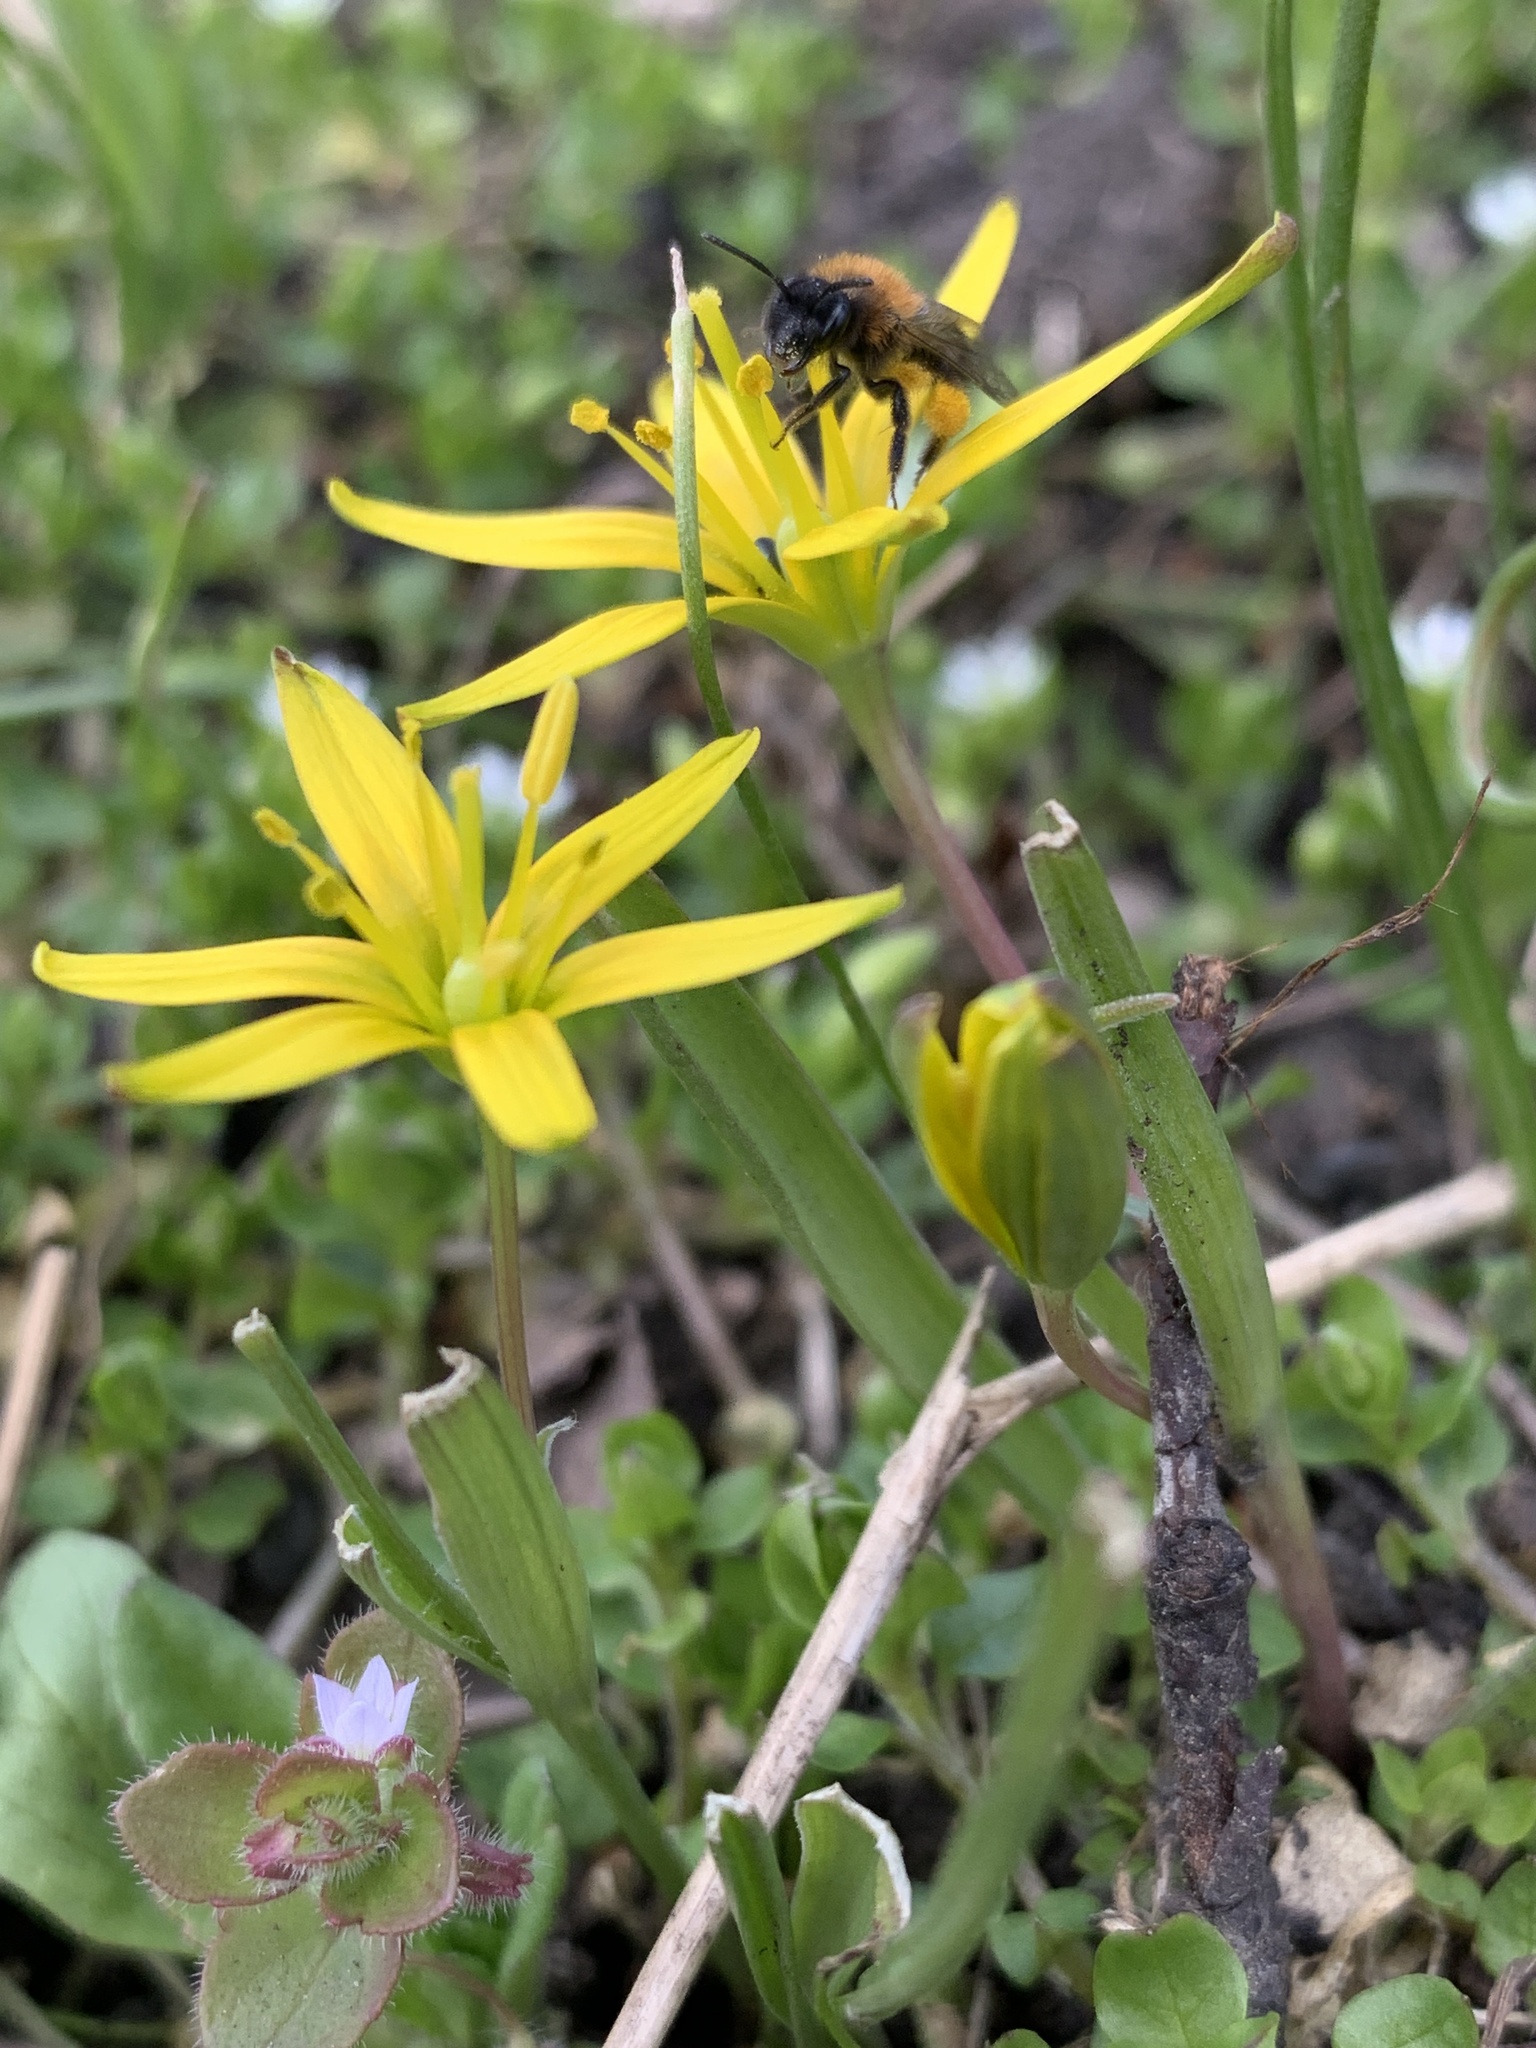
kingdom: Plantae
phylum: Tracheophyta
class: Liliopsida
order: Liliales
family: Liliaceae
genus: Gagea
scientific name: Gagea pratensis
